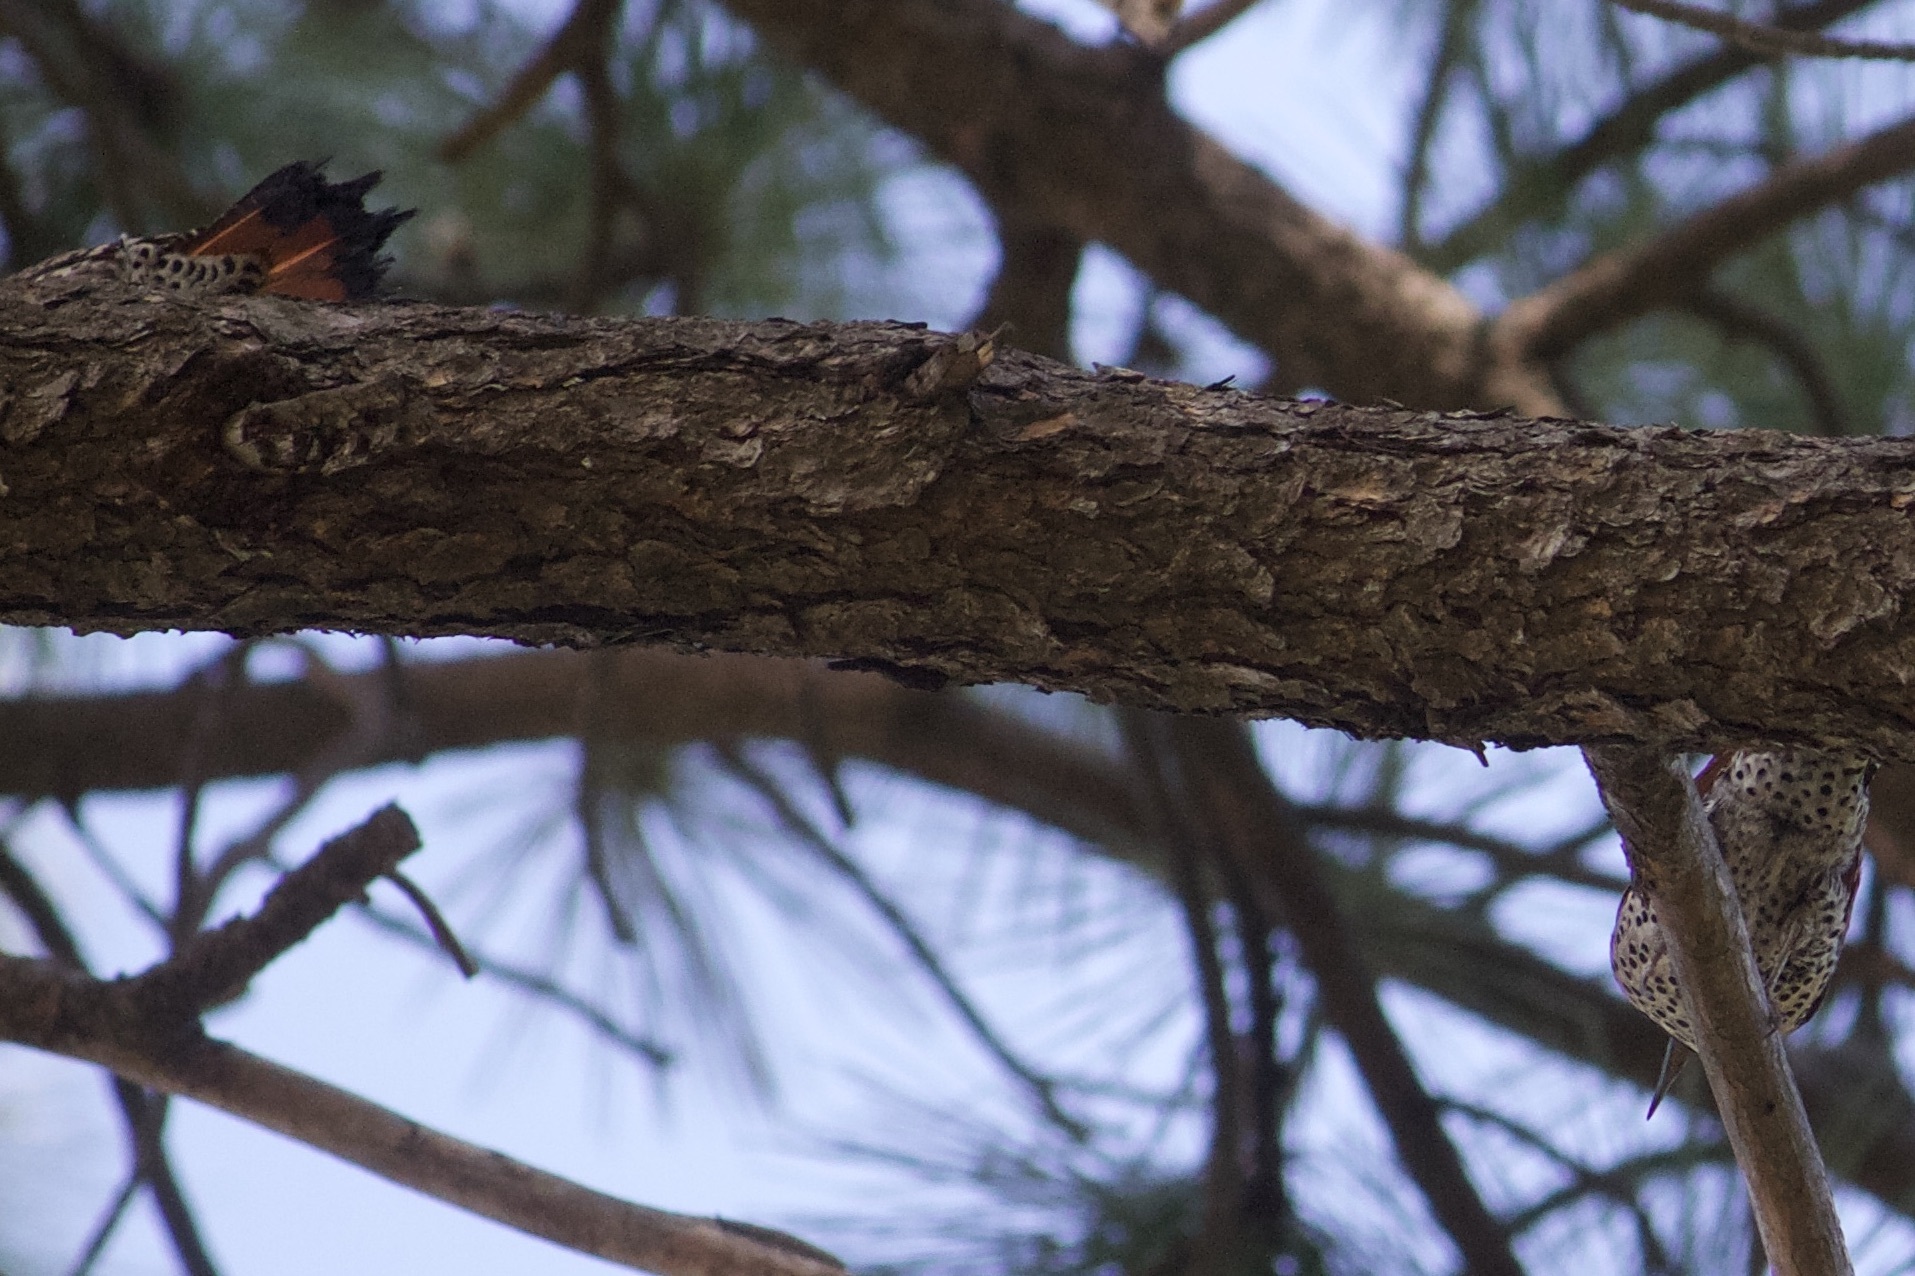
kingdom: Animalia
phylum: Chordata
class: Aves
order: Piciformes
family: Picidae
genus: Colaptes
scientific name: Colaptes auratus
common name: Northern flicker
